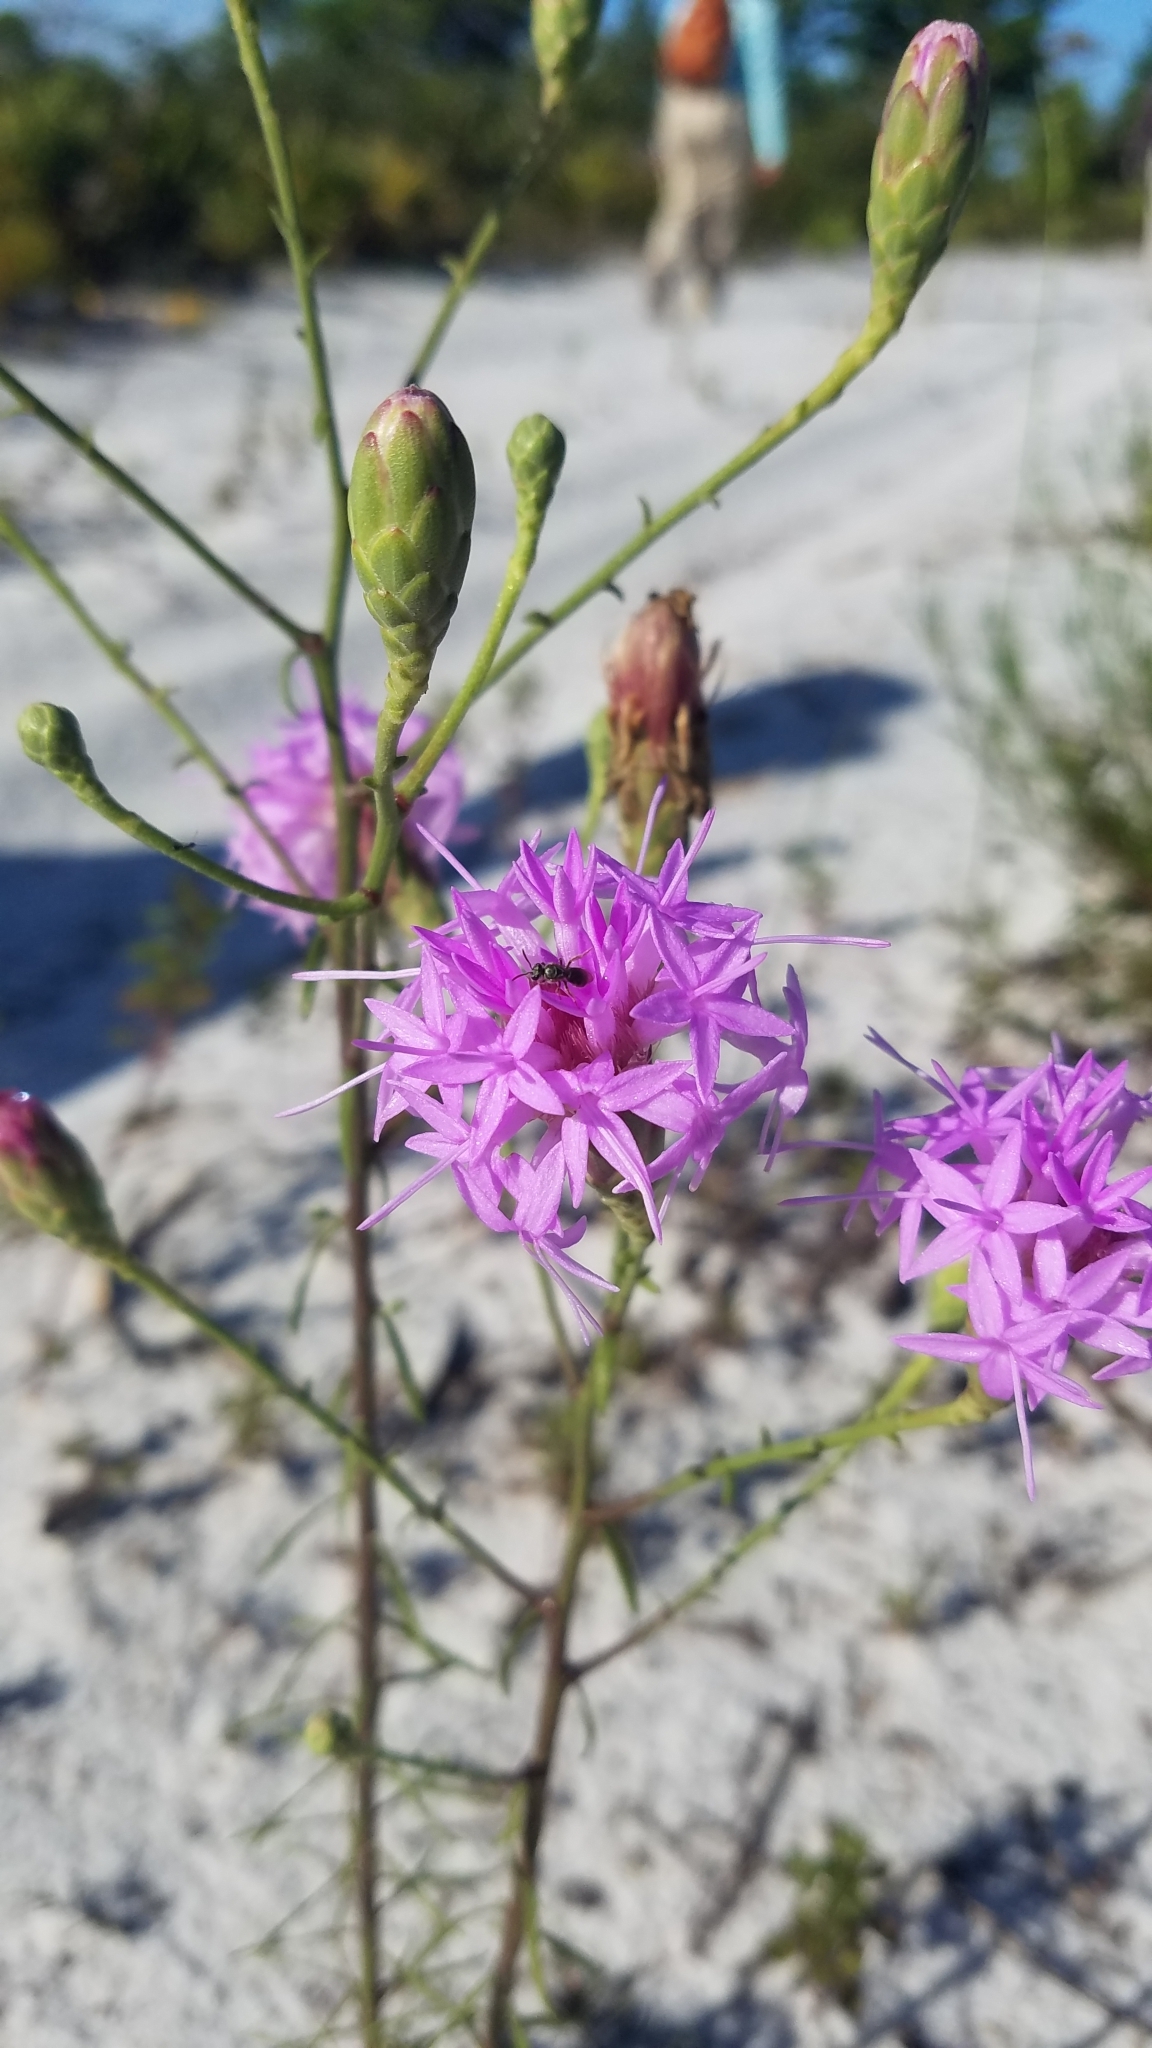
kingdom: Plantae
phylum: Tracheophyta
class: Magnoliopsida
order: Asterales
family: Asteraceae
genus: Liatris
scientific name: Liatris ohlingerae
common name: Scrub blazingstar
